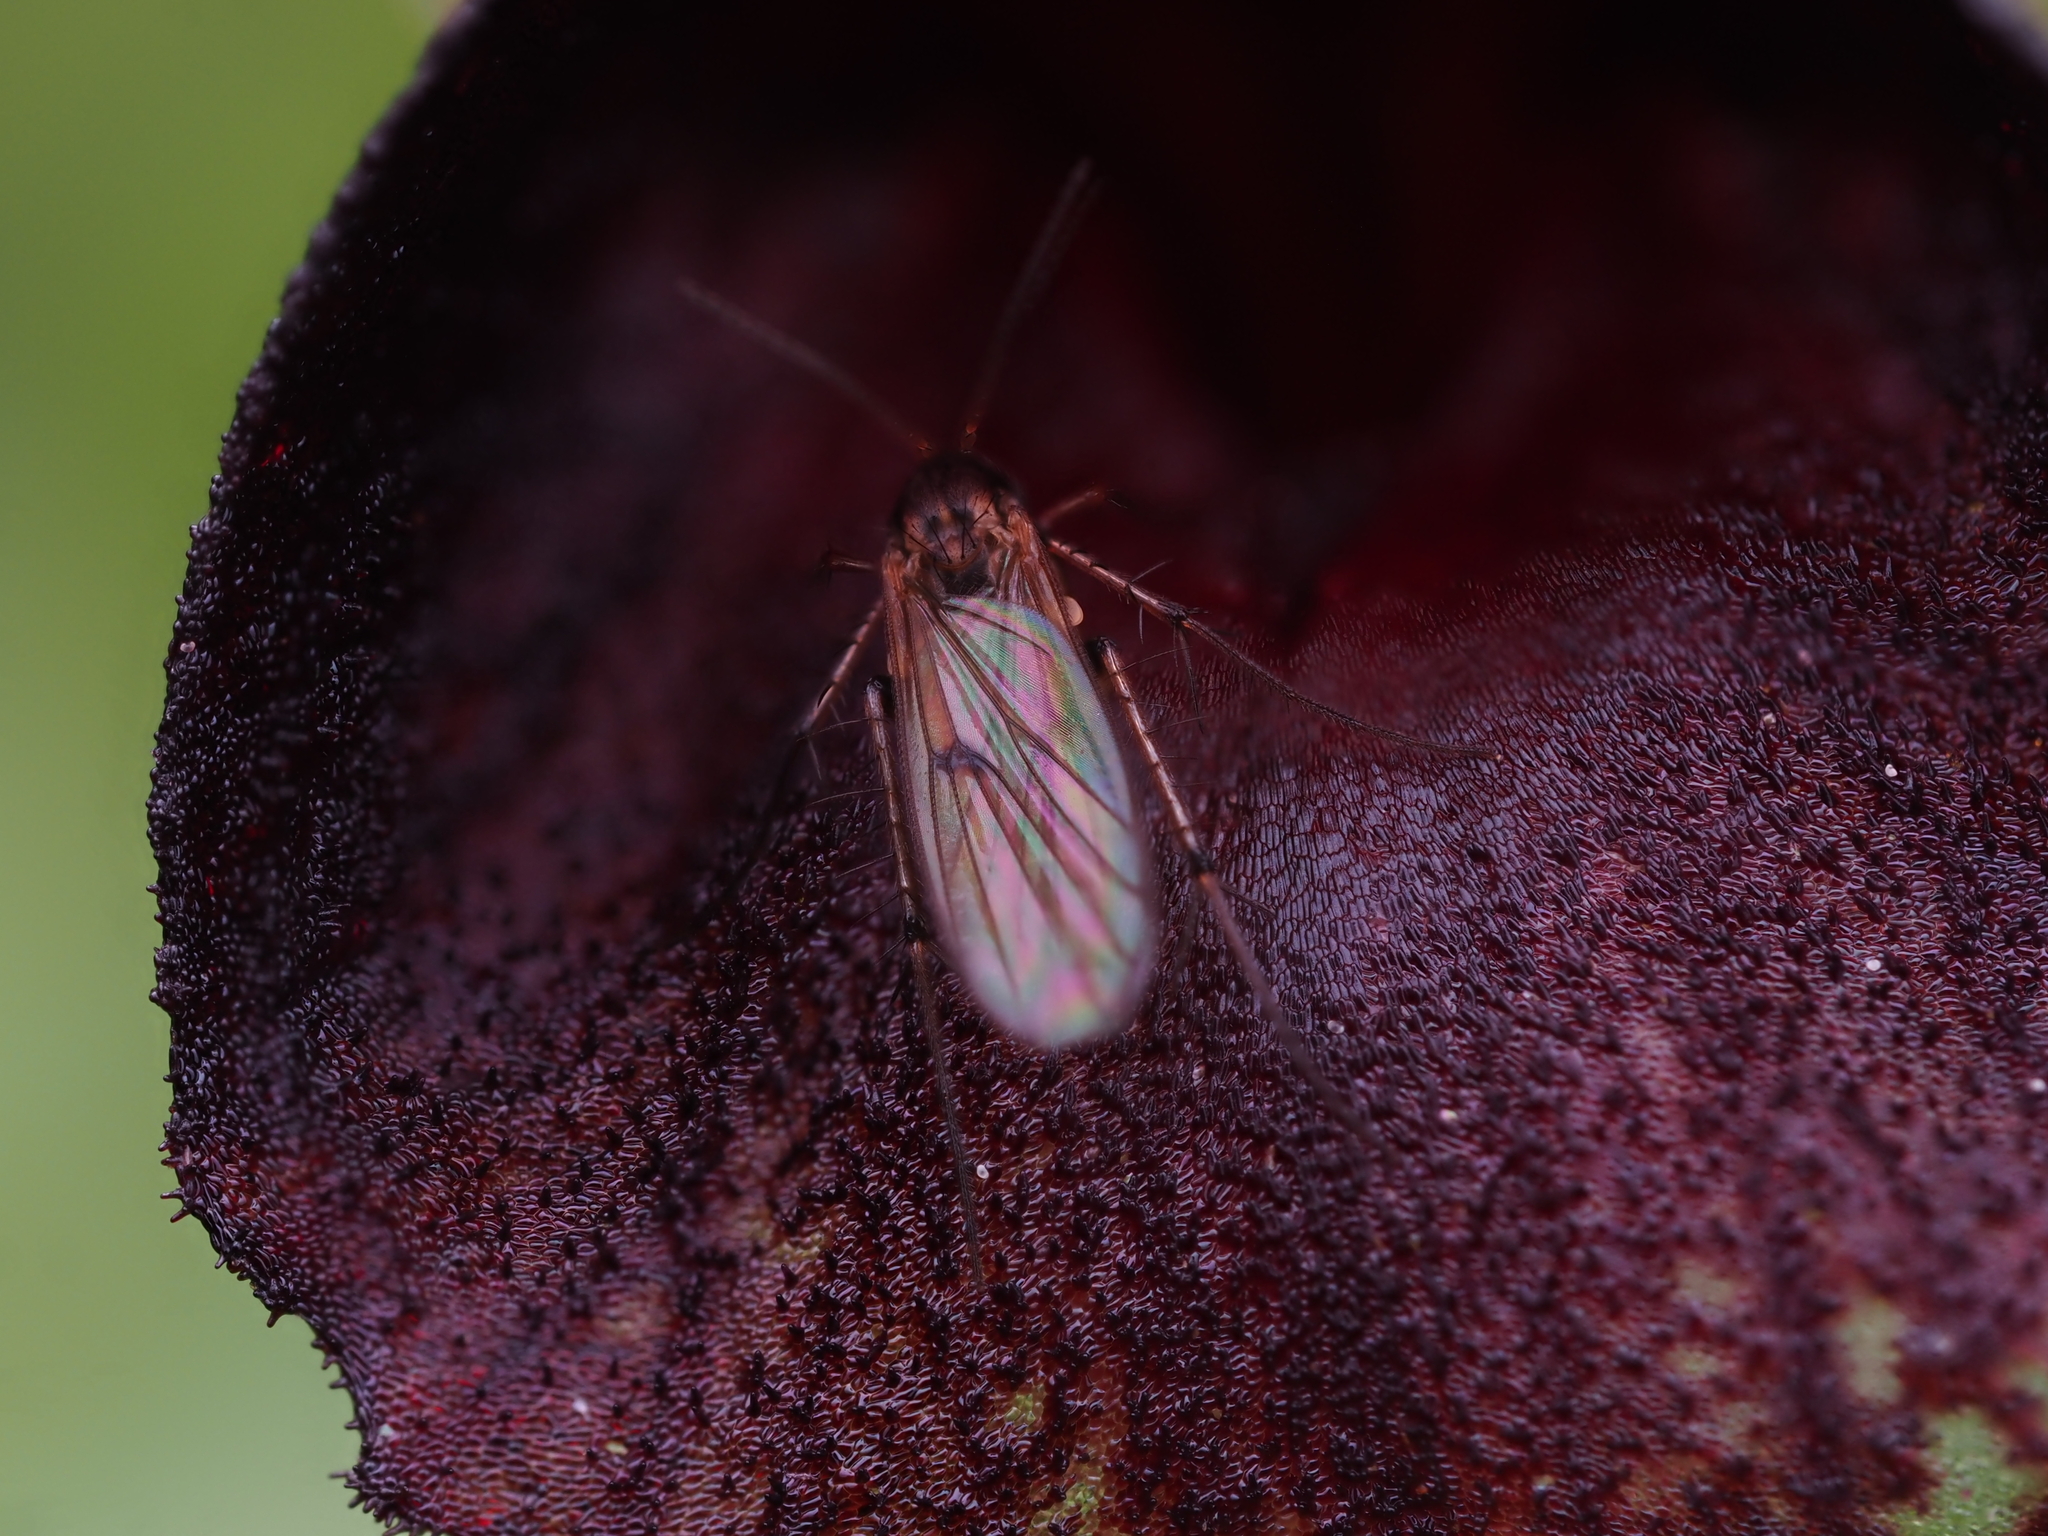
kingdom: Animalia
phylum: Arthropoda
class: Insecta
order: Diptera
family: Mycetophilidae
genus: Mycetophila
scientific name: Mycetophila colorata
